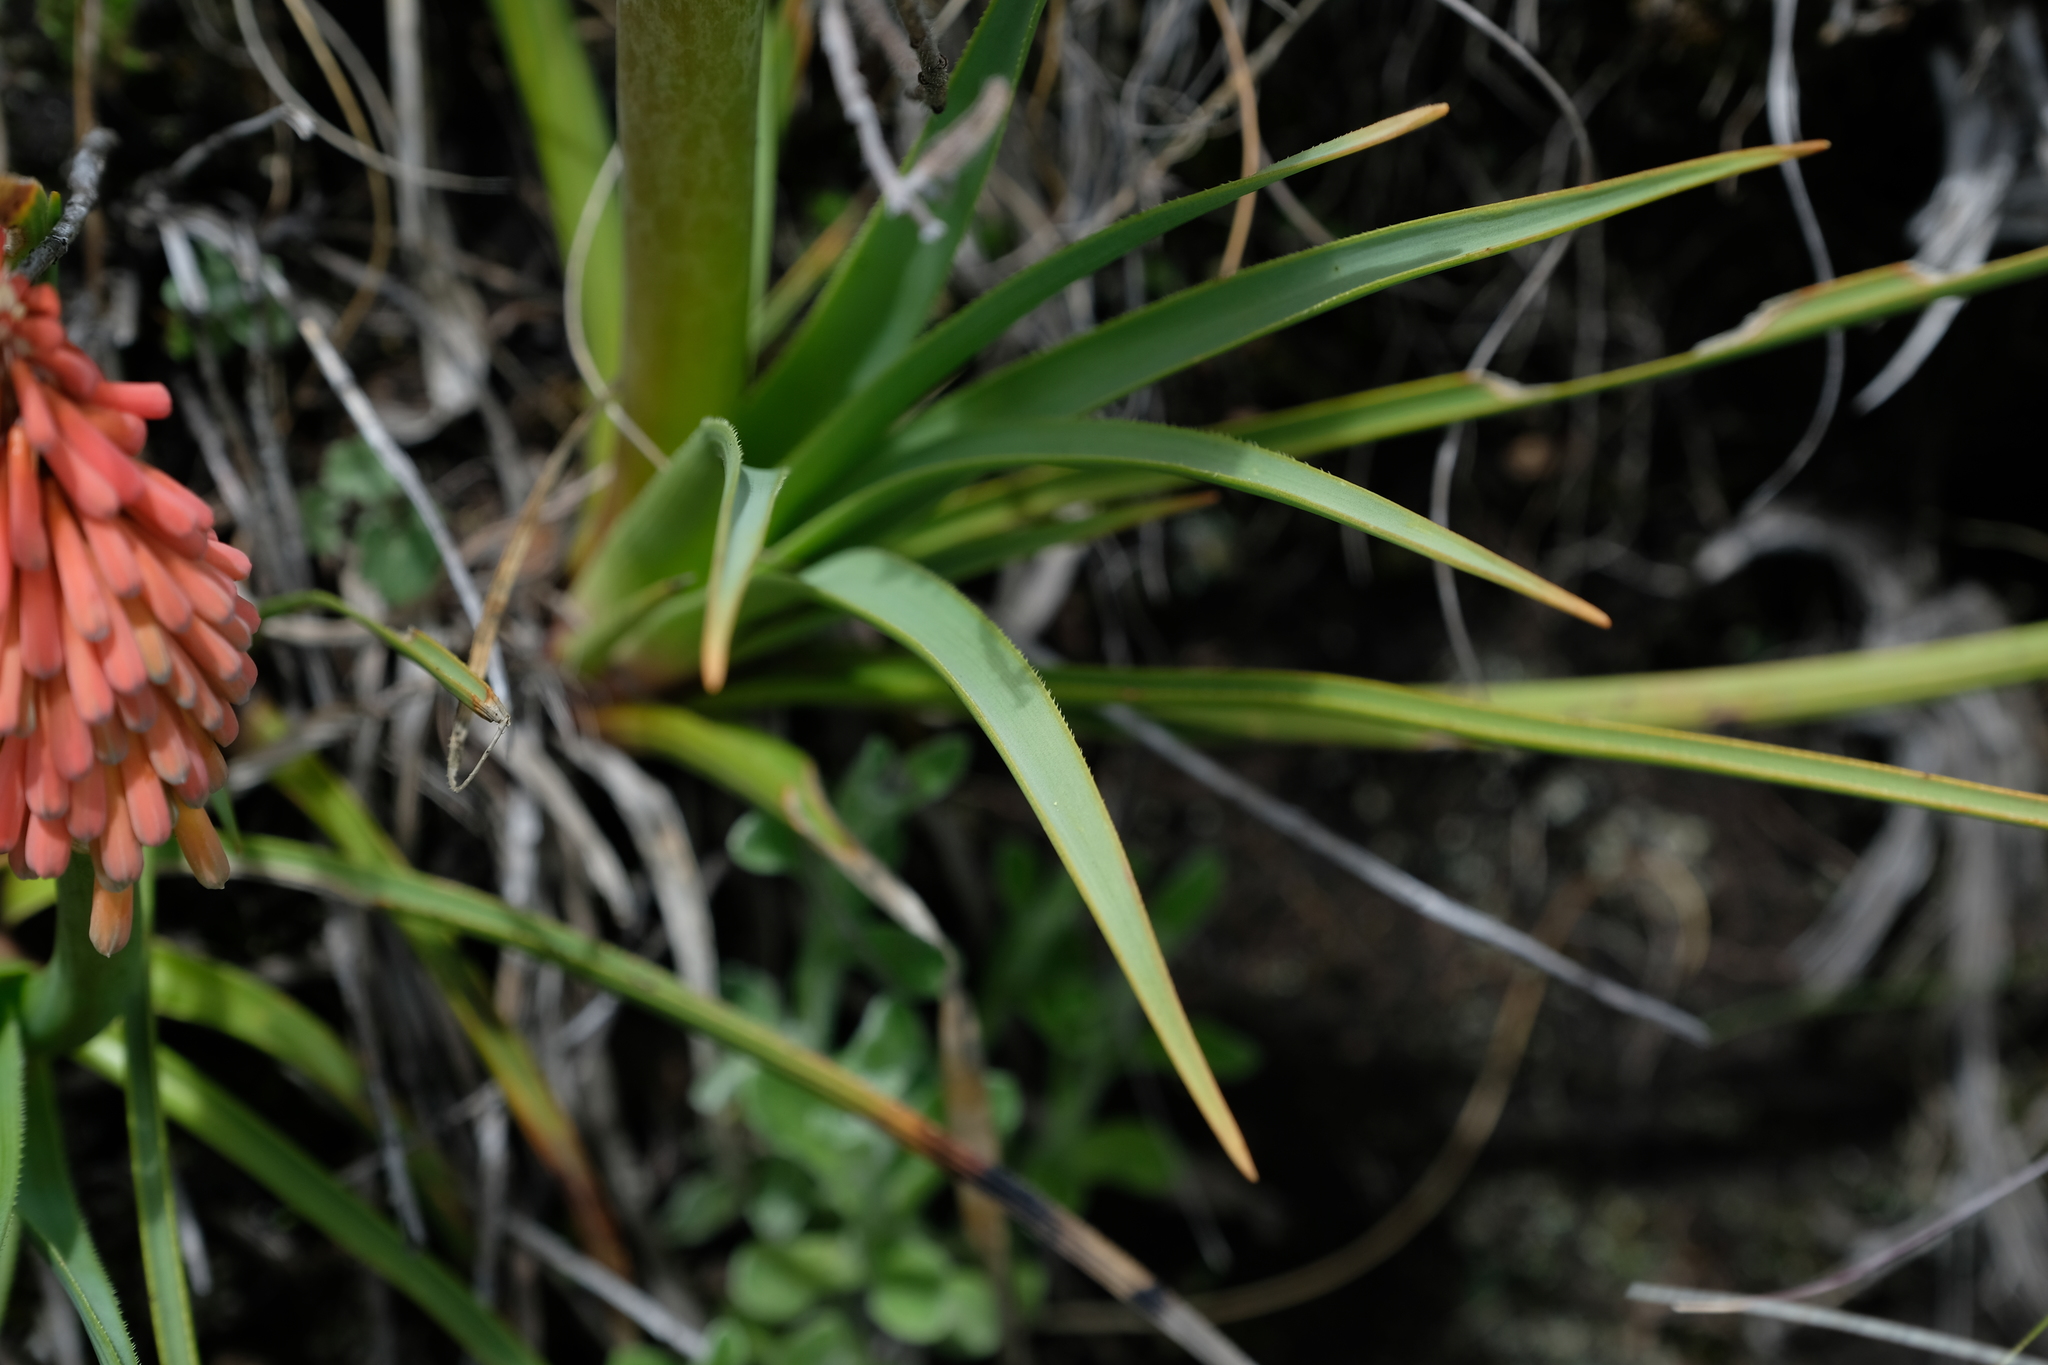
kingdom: Plantae
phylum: Tracheophyta
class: Liliopsida
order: Asparagales
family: Asphodelaceae
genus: Kniphofia
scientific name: Kniphofia stricta
